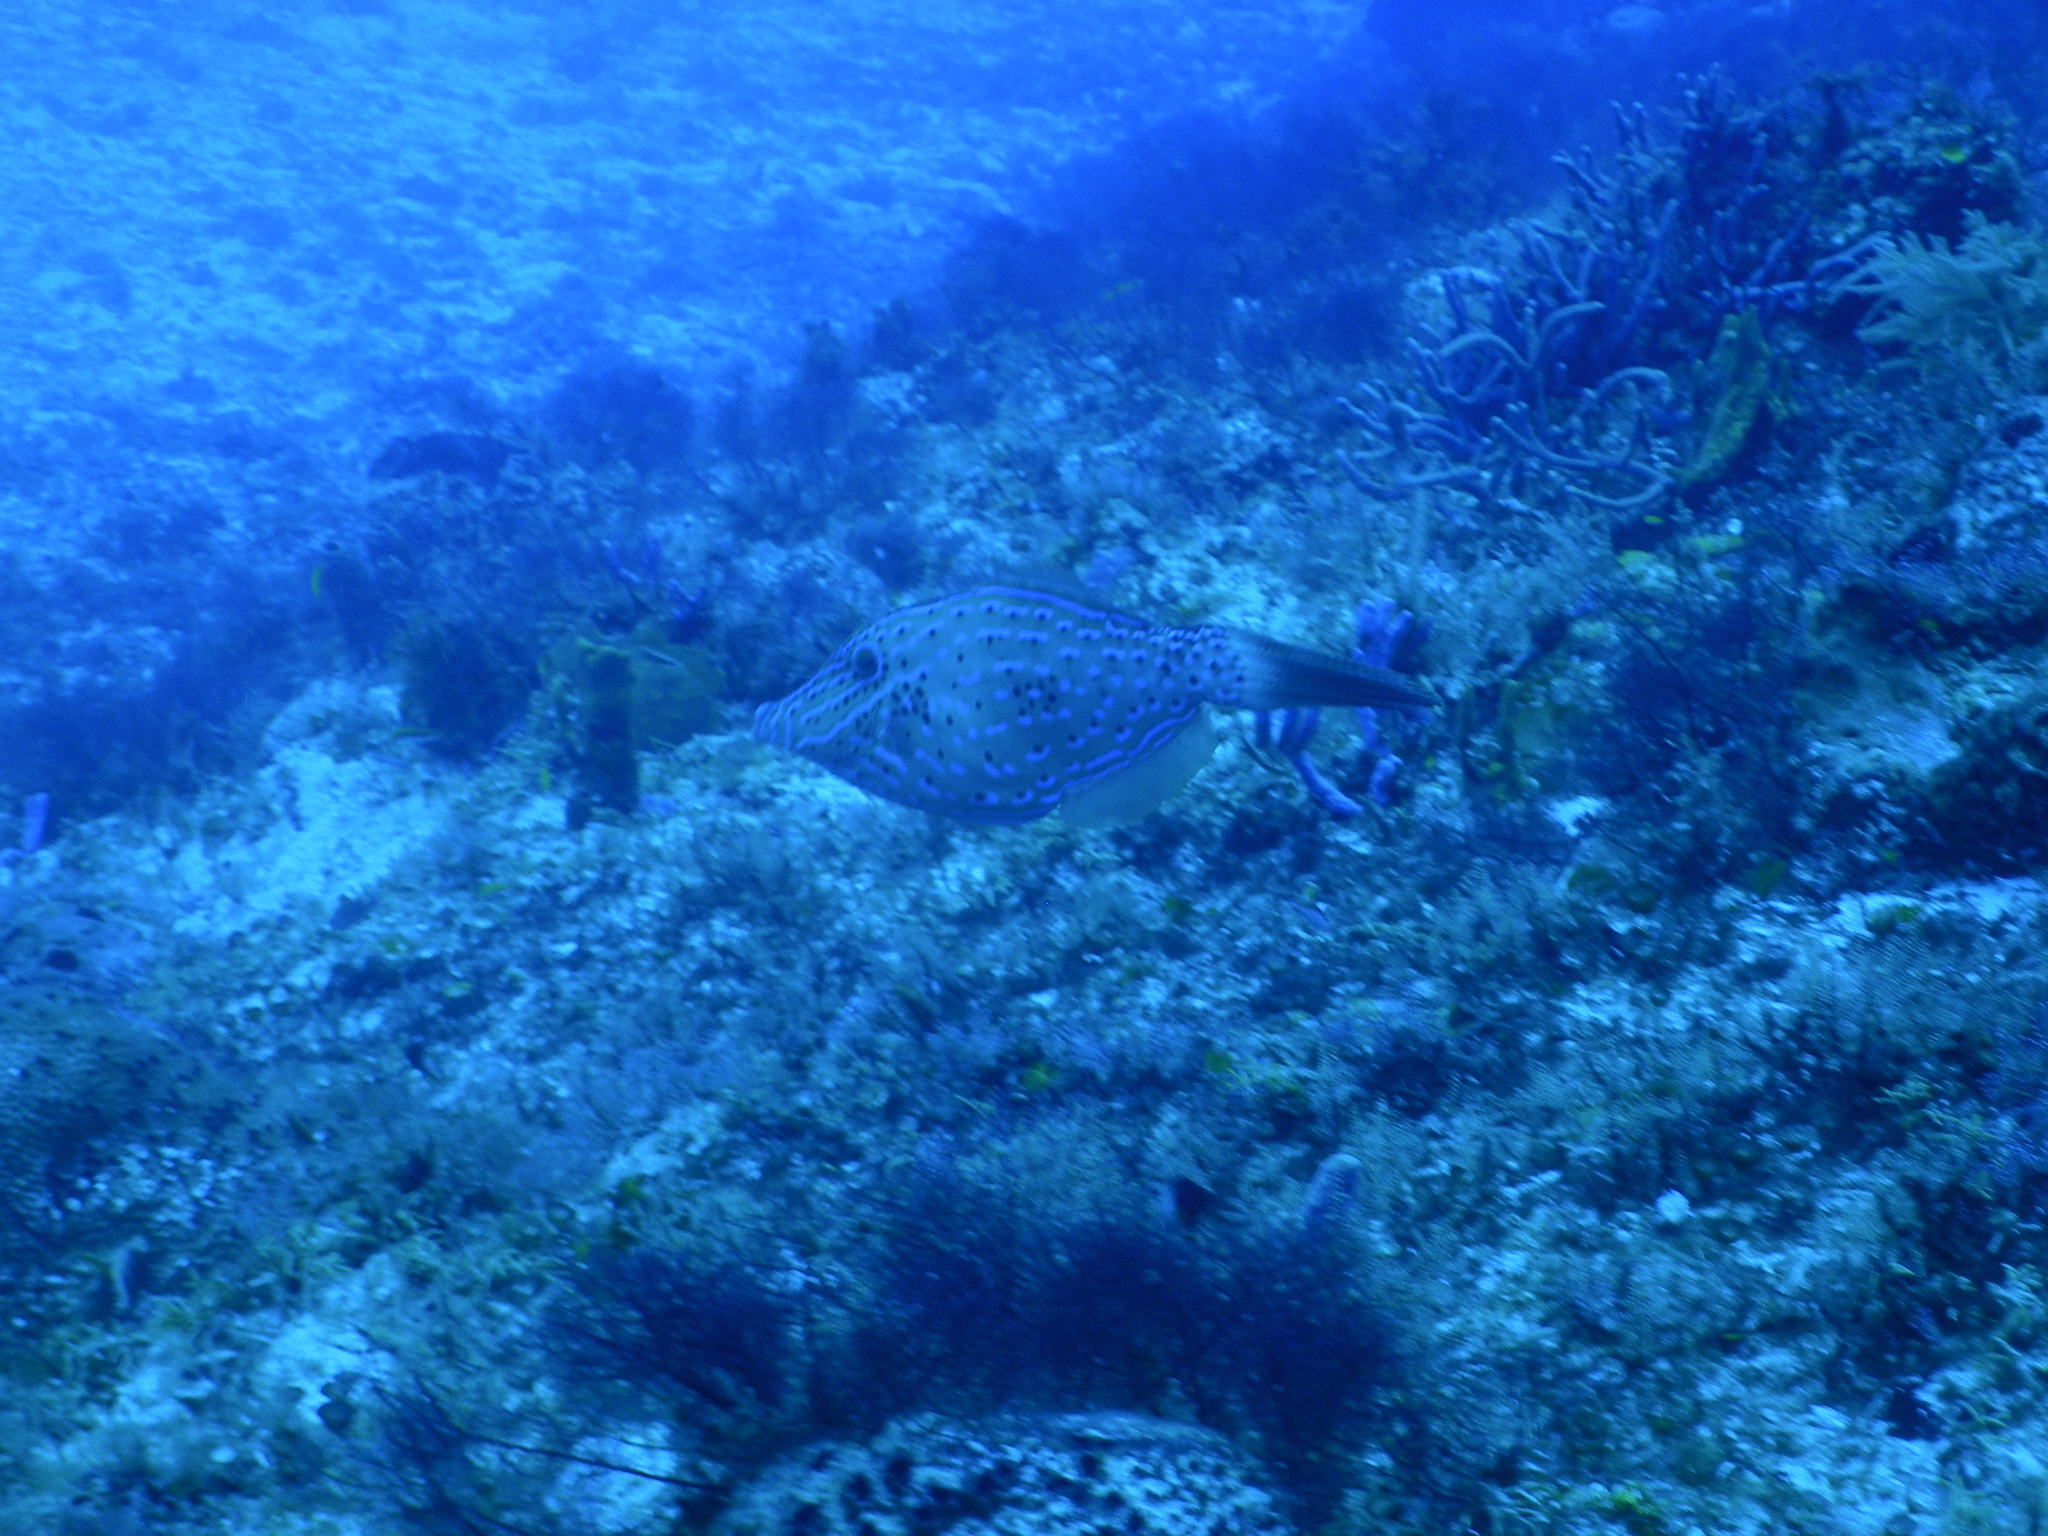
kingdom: Animalia
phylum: Chordata
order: Tetraodontiformes
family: Monacanthidae
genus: Aluterus
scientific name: Aluterus scriptus
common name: Scribbled leatherjacket filefish
